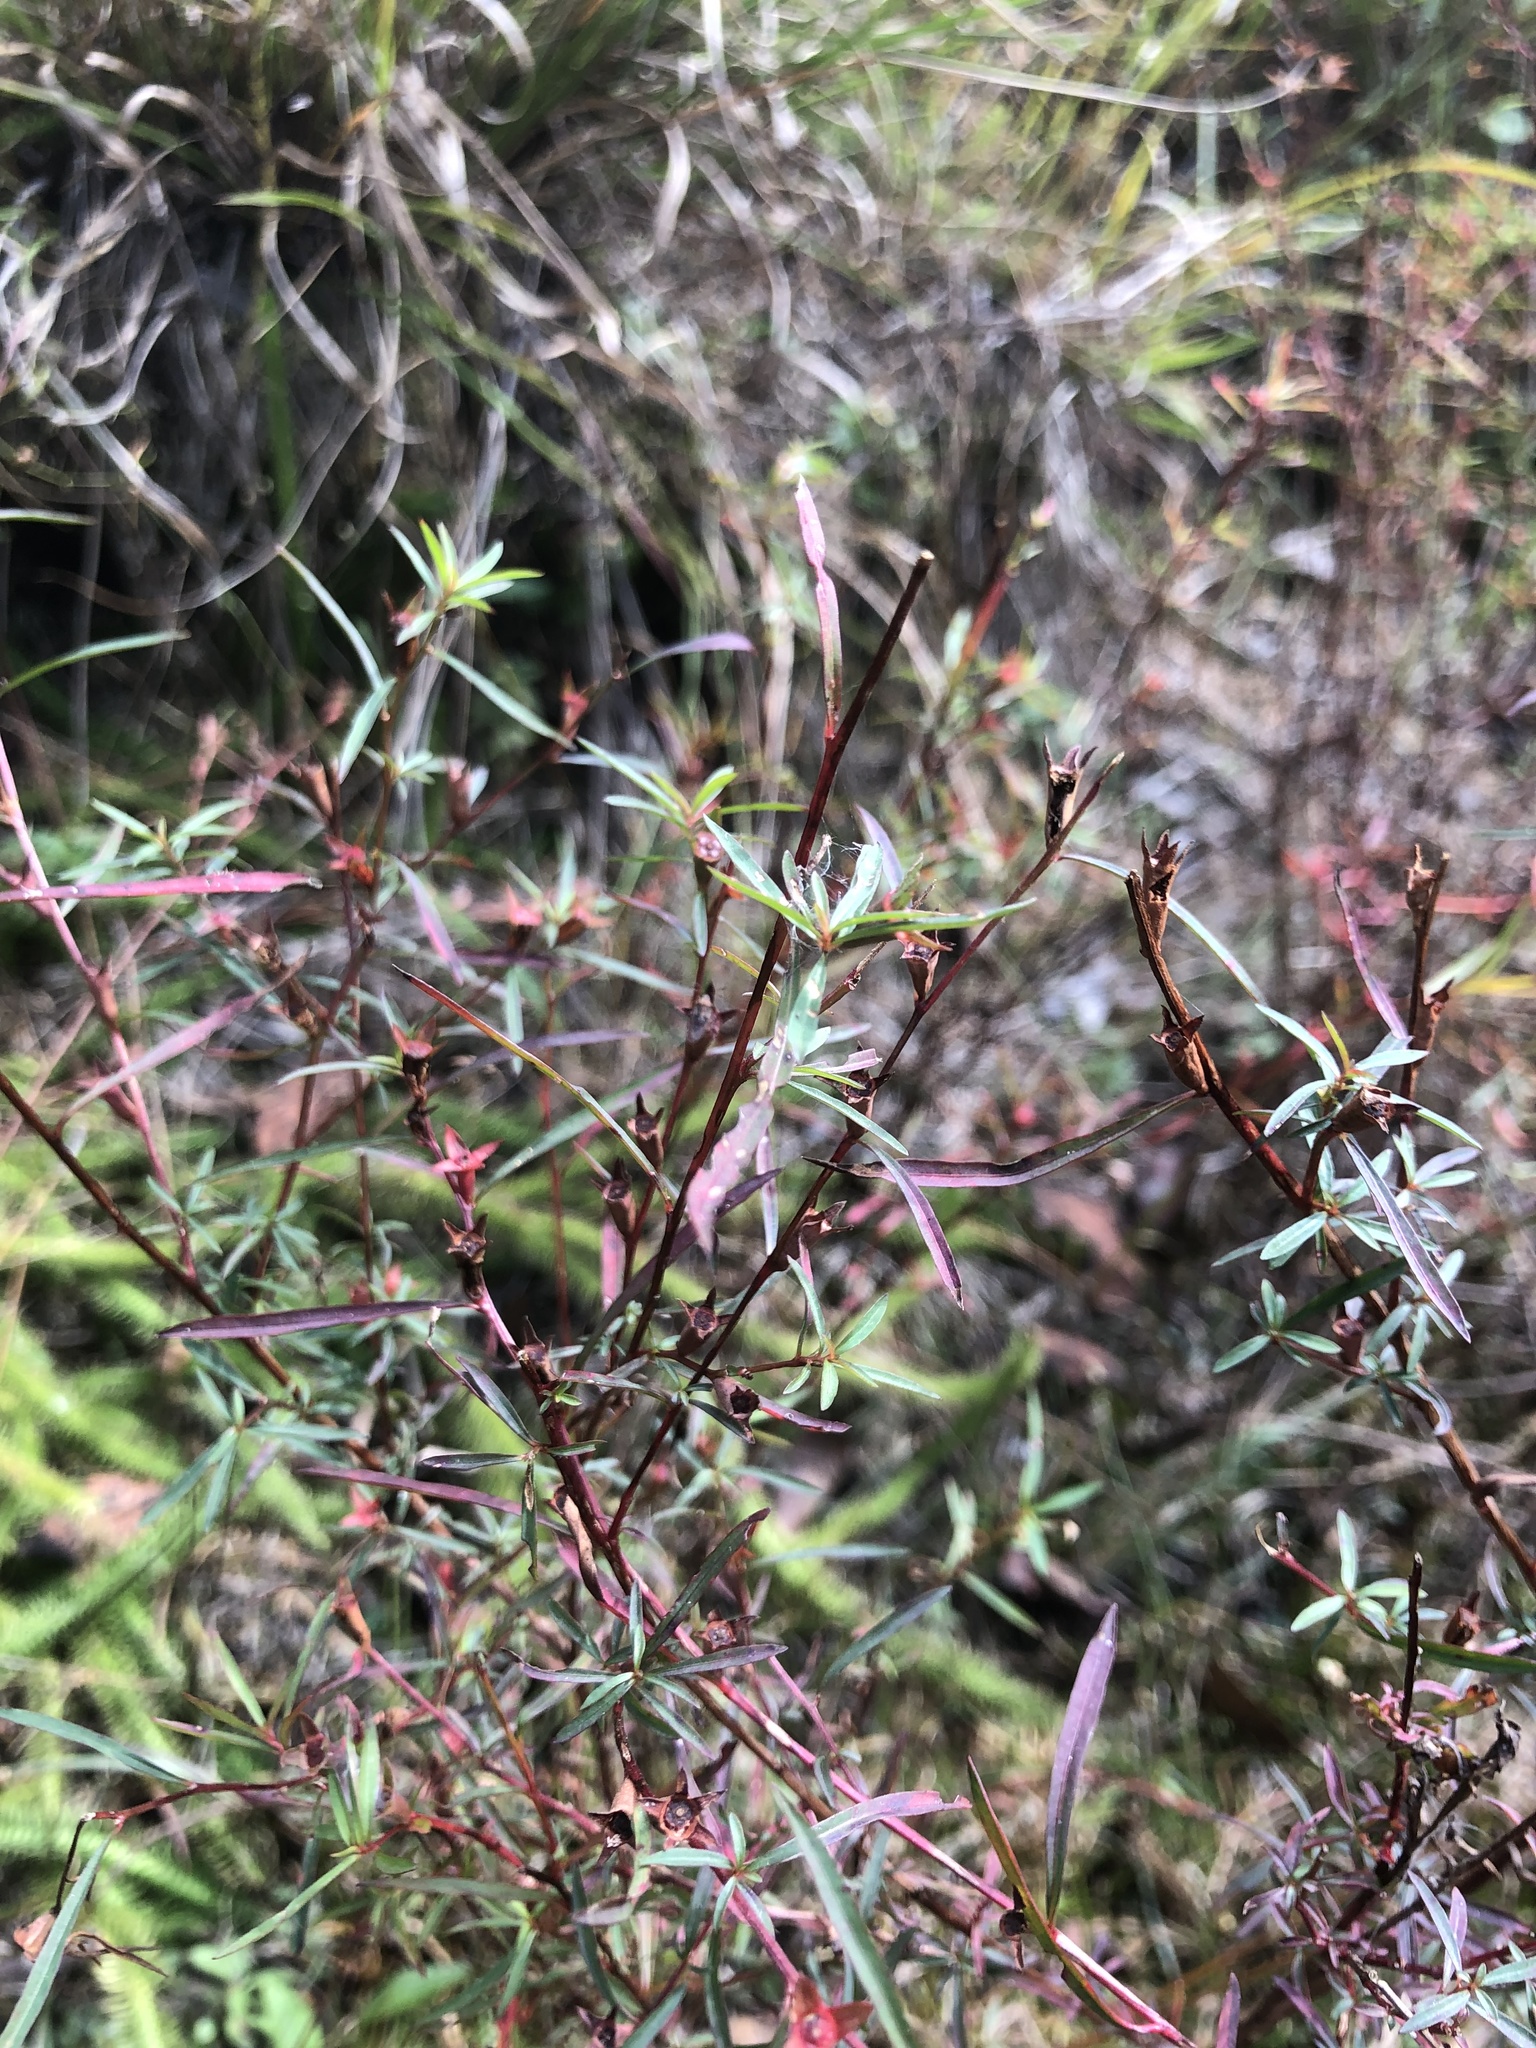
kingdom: Plantae
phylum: Tracheophyta
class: Magnoliopsida
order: Myrtales
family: Onagraceae
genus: Ludwigia
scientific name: Ludwigia linearis
